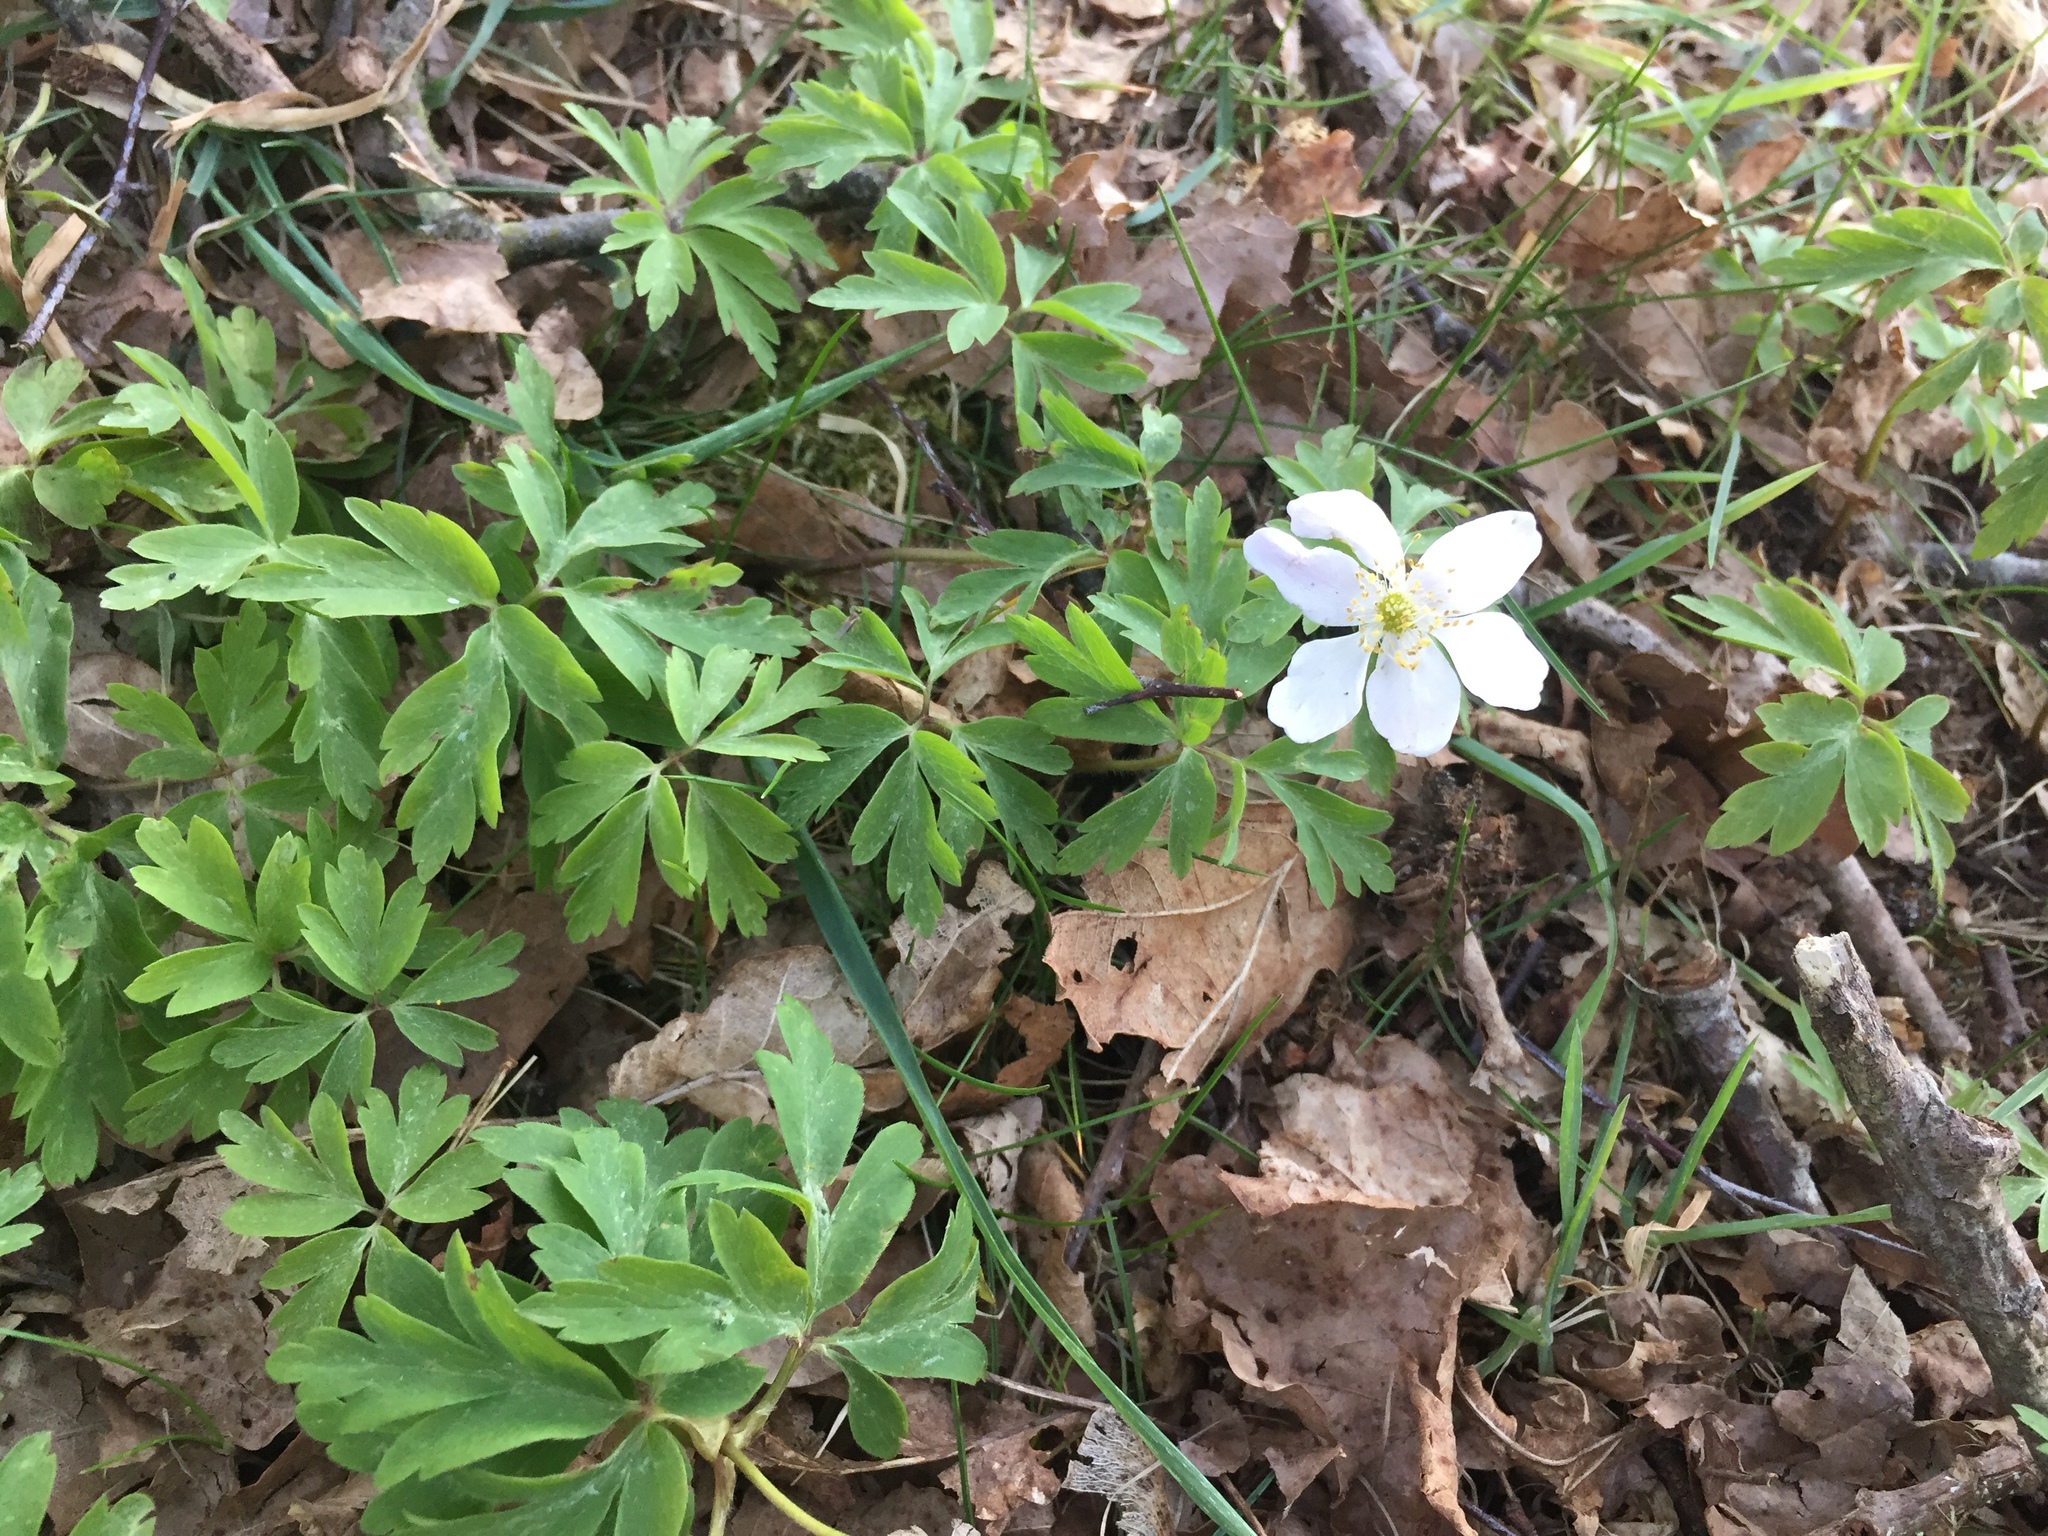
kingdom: Plantae
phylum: Tracheophyta
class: Magnoliopsida
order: Ranunculales
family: Ranunculaceae
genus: Anemone
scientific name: Anemone nemorosa
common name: Wood anemone
